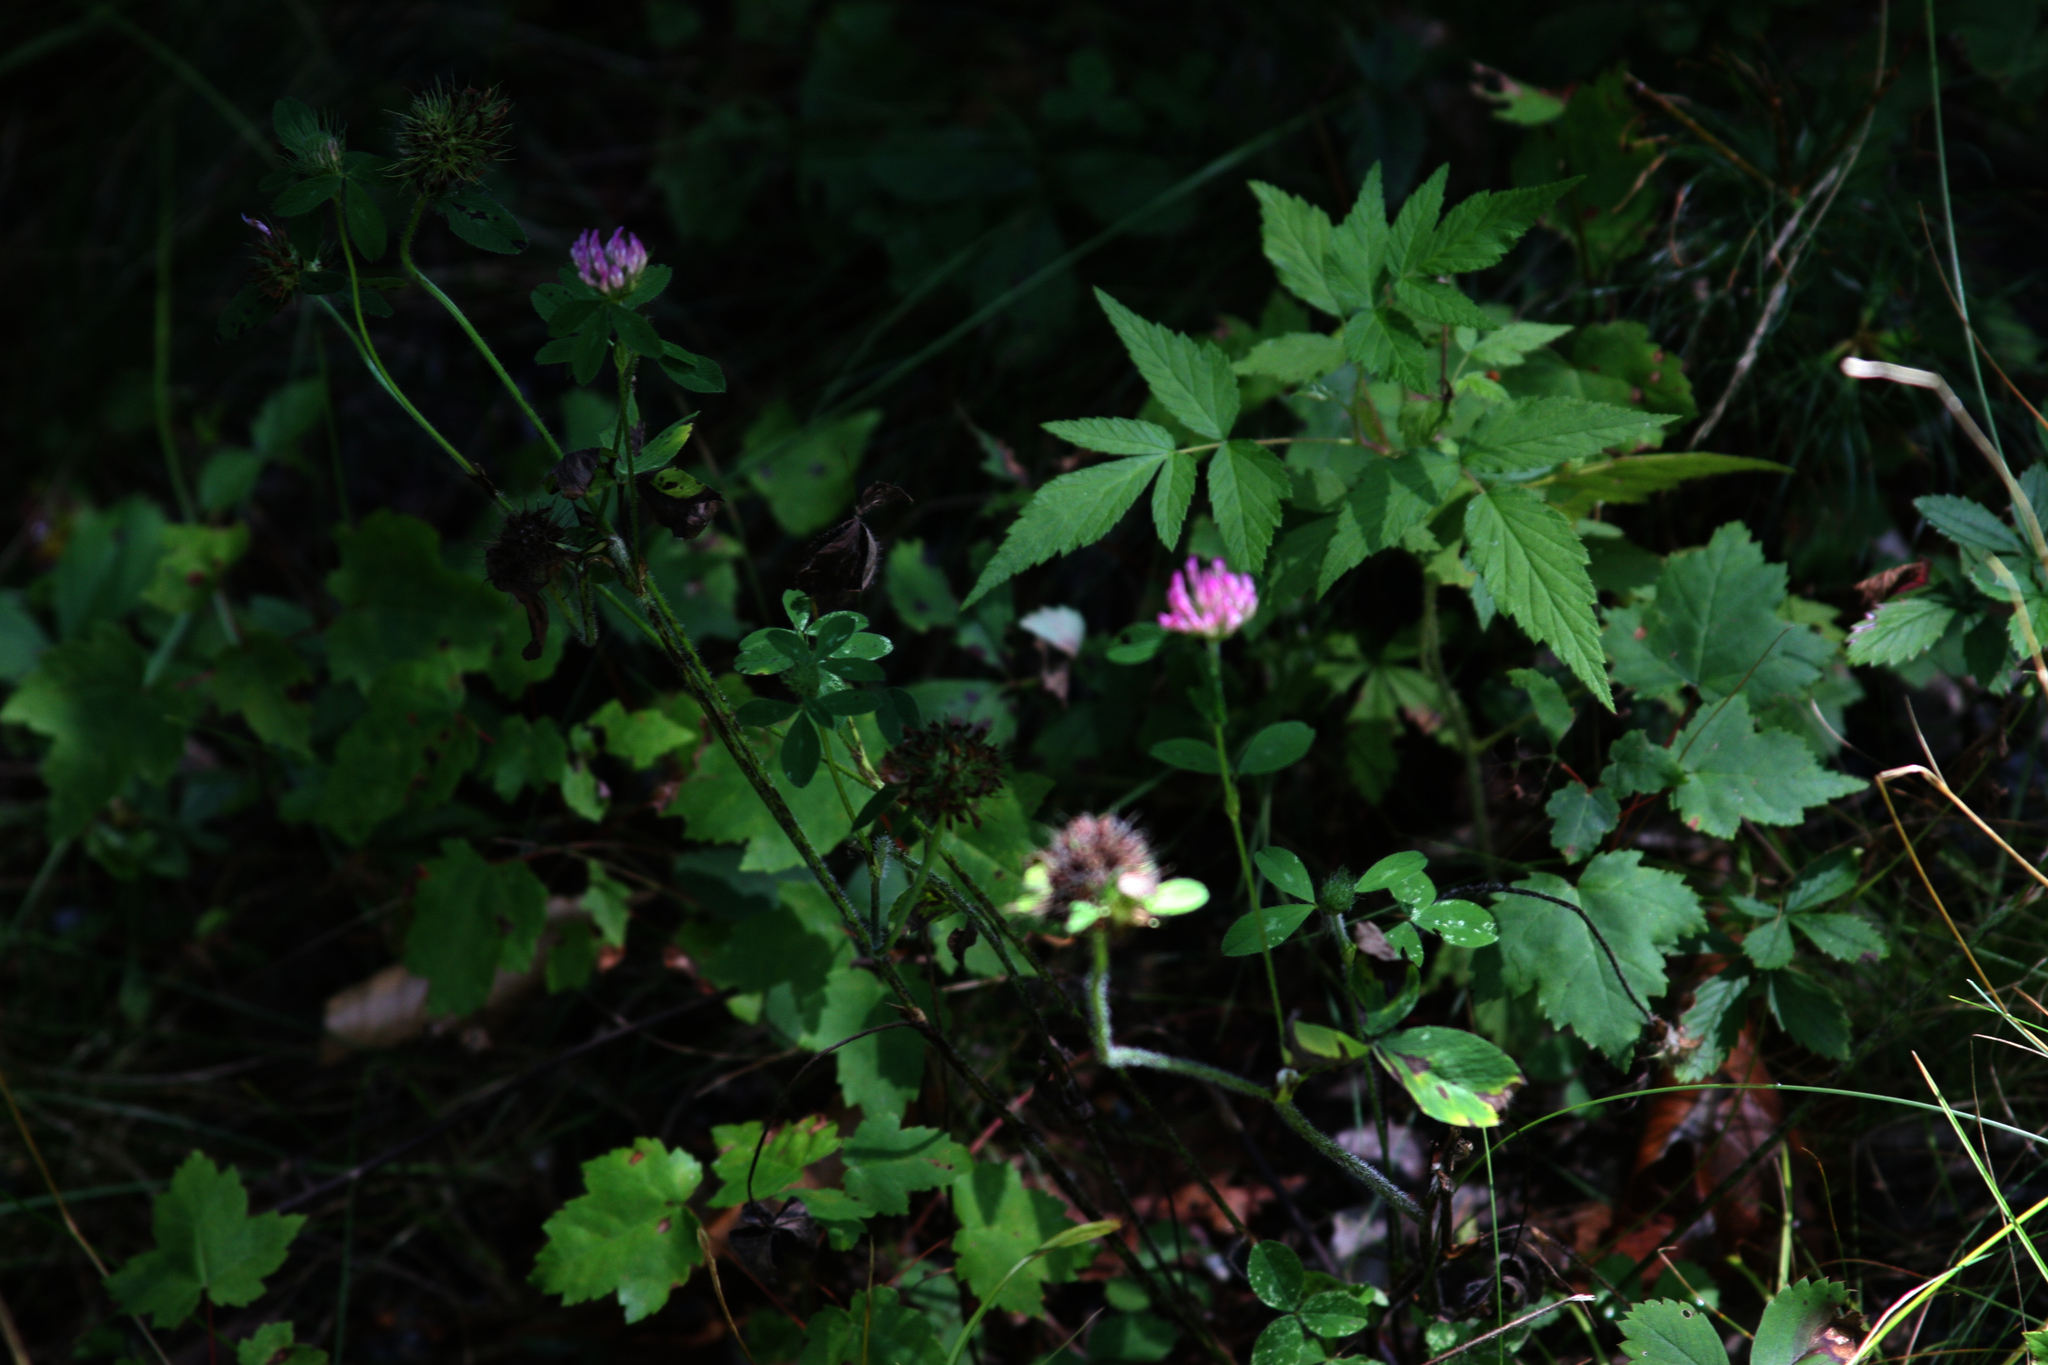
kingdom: Plantae
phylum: Tracheophyta
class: Magnoliopsida
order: Fabales
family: Fabaceae
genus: Trifolium
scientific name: Trifolium pratense
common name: Red clover
